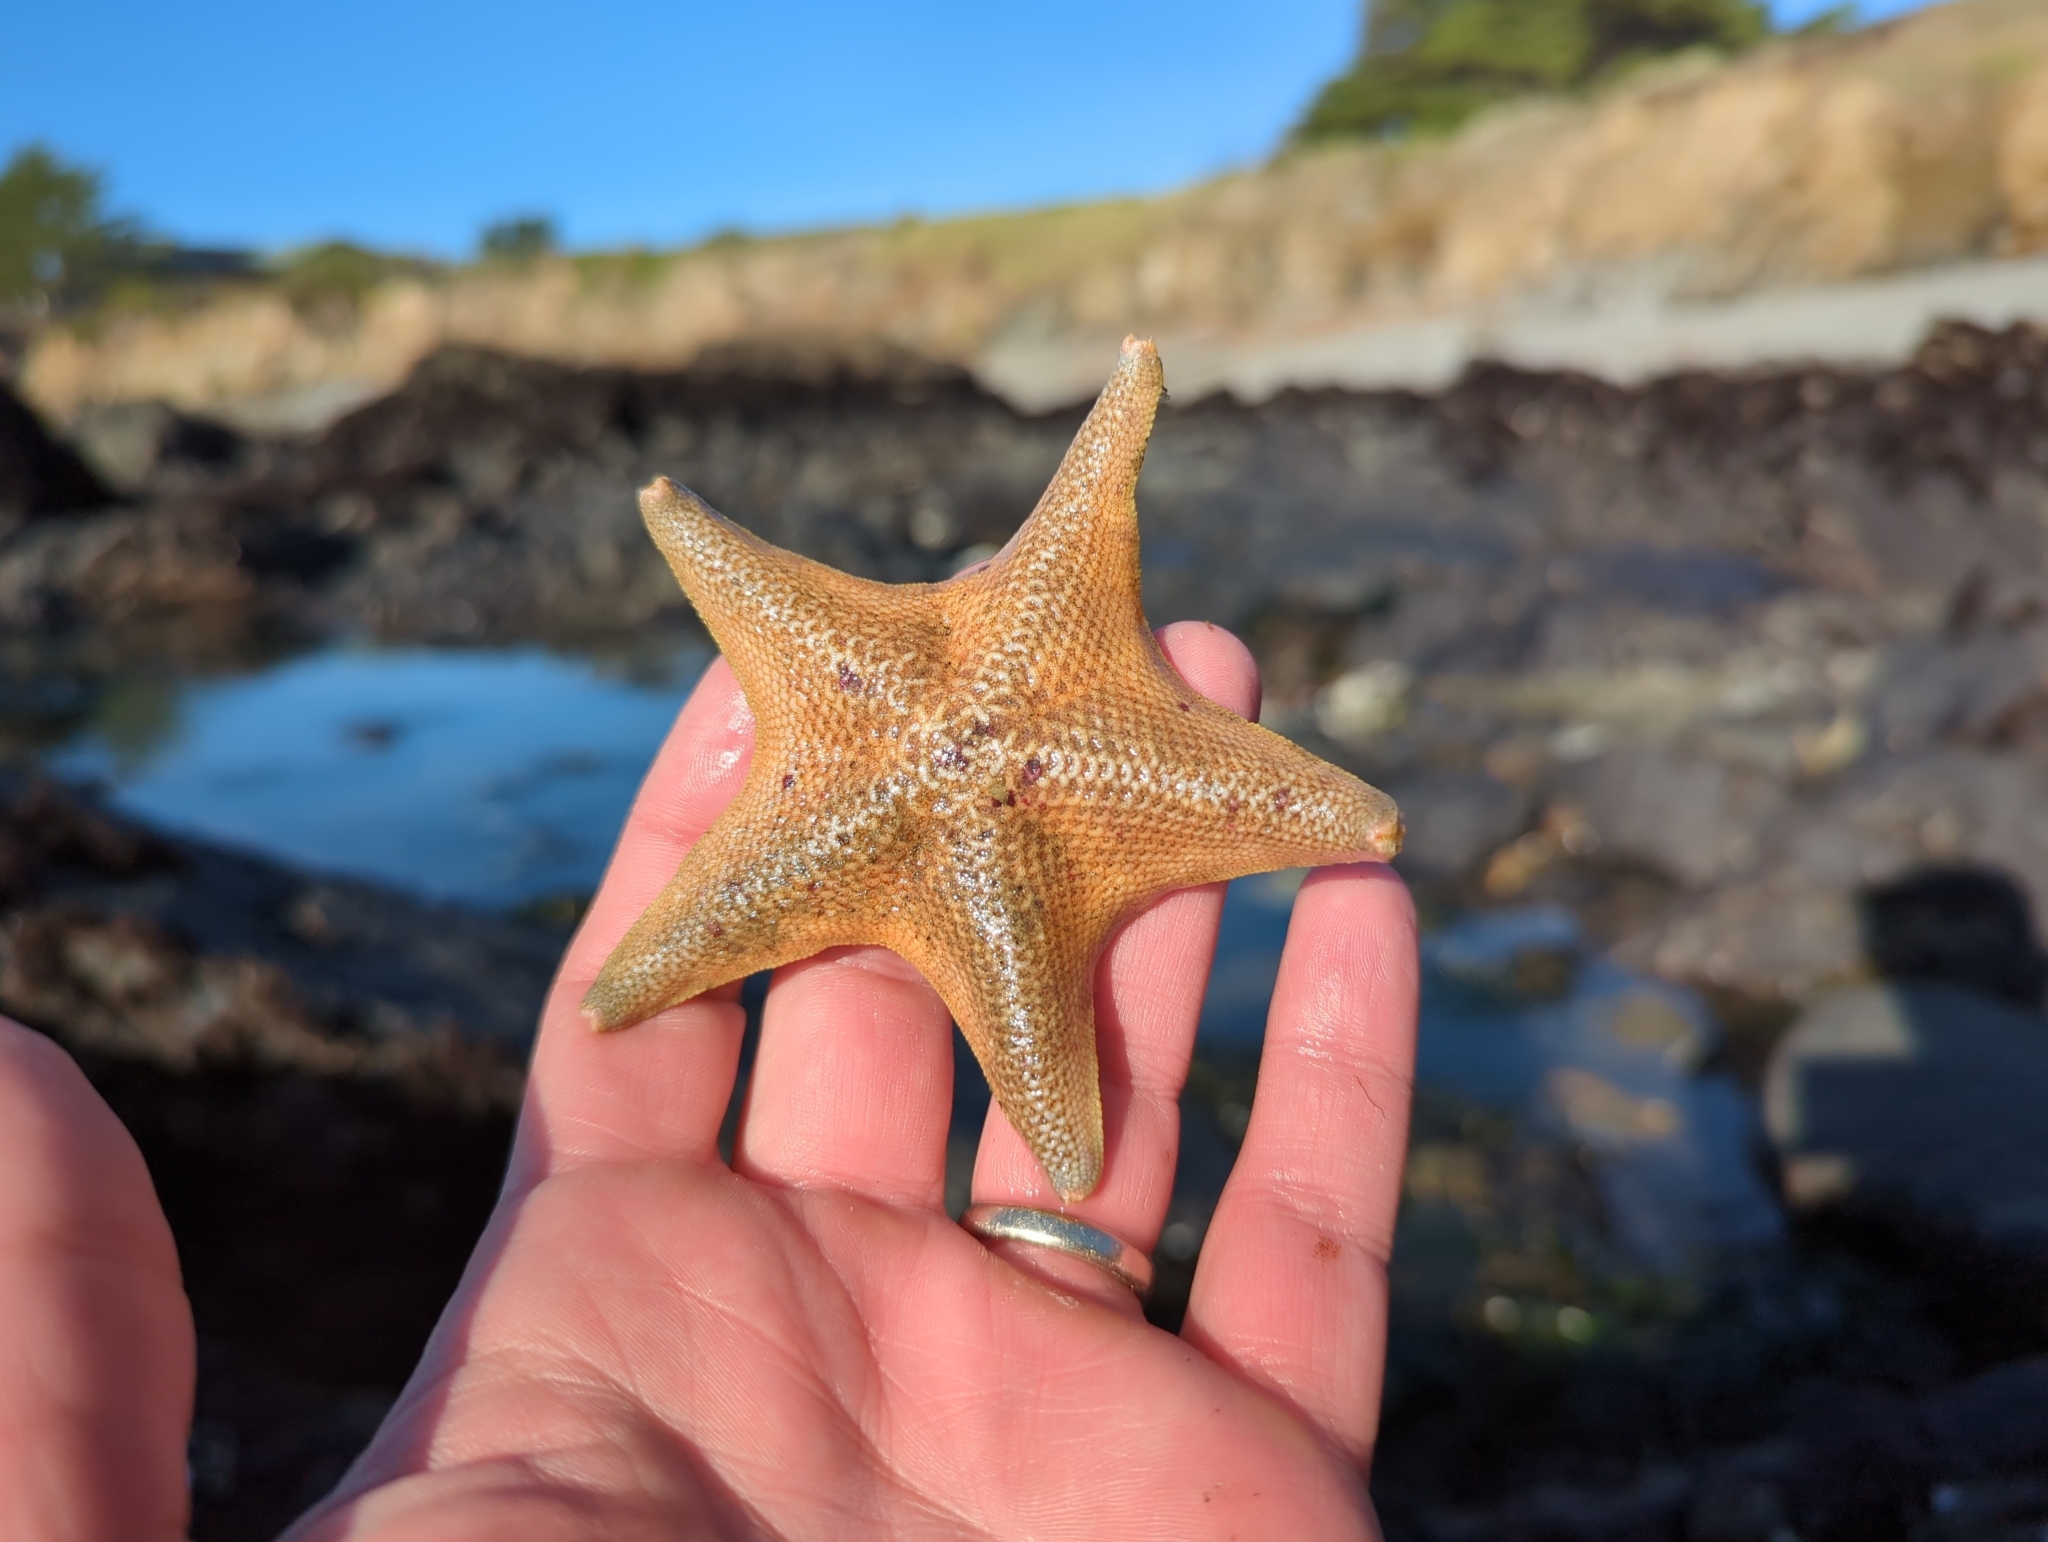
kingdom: Animalia
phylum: Echinodermata
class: Asteroidea
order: Valvatida
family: Asterinidae
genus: Patiria
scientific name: Patiria miniata
